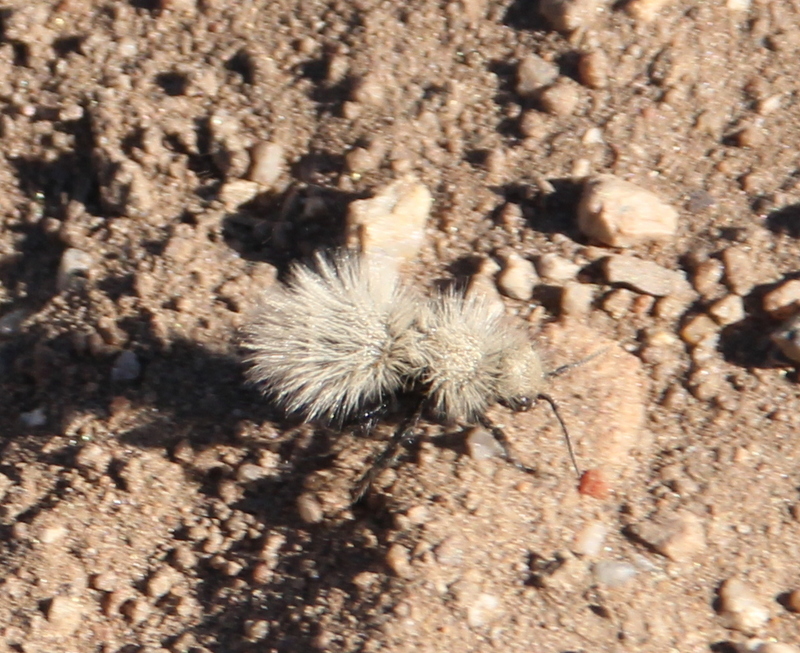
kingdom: Animalia
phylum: Arthropoda
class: Insecta
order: Hymenoptera
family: Mutillidae
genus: Dasymutilla
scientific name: Dasymutilla
